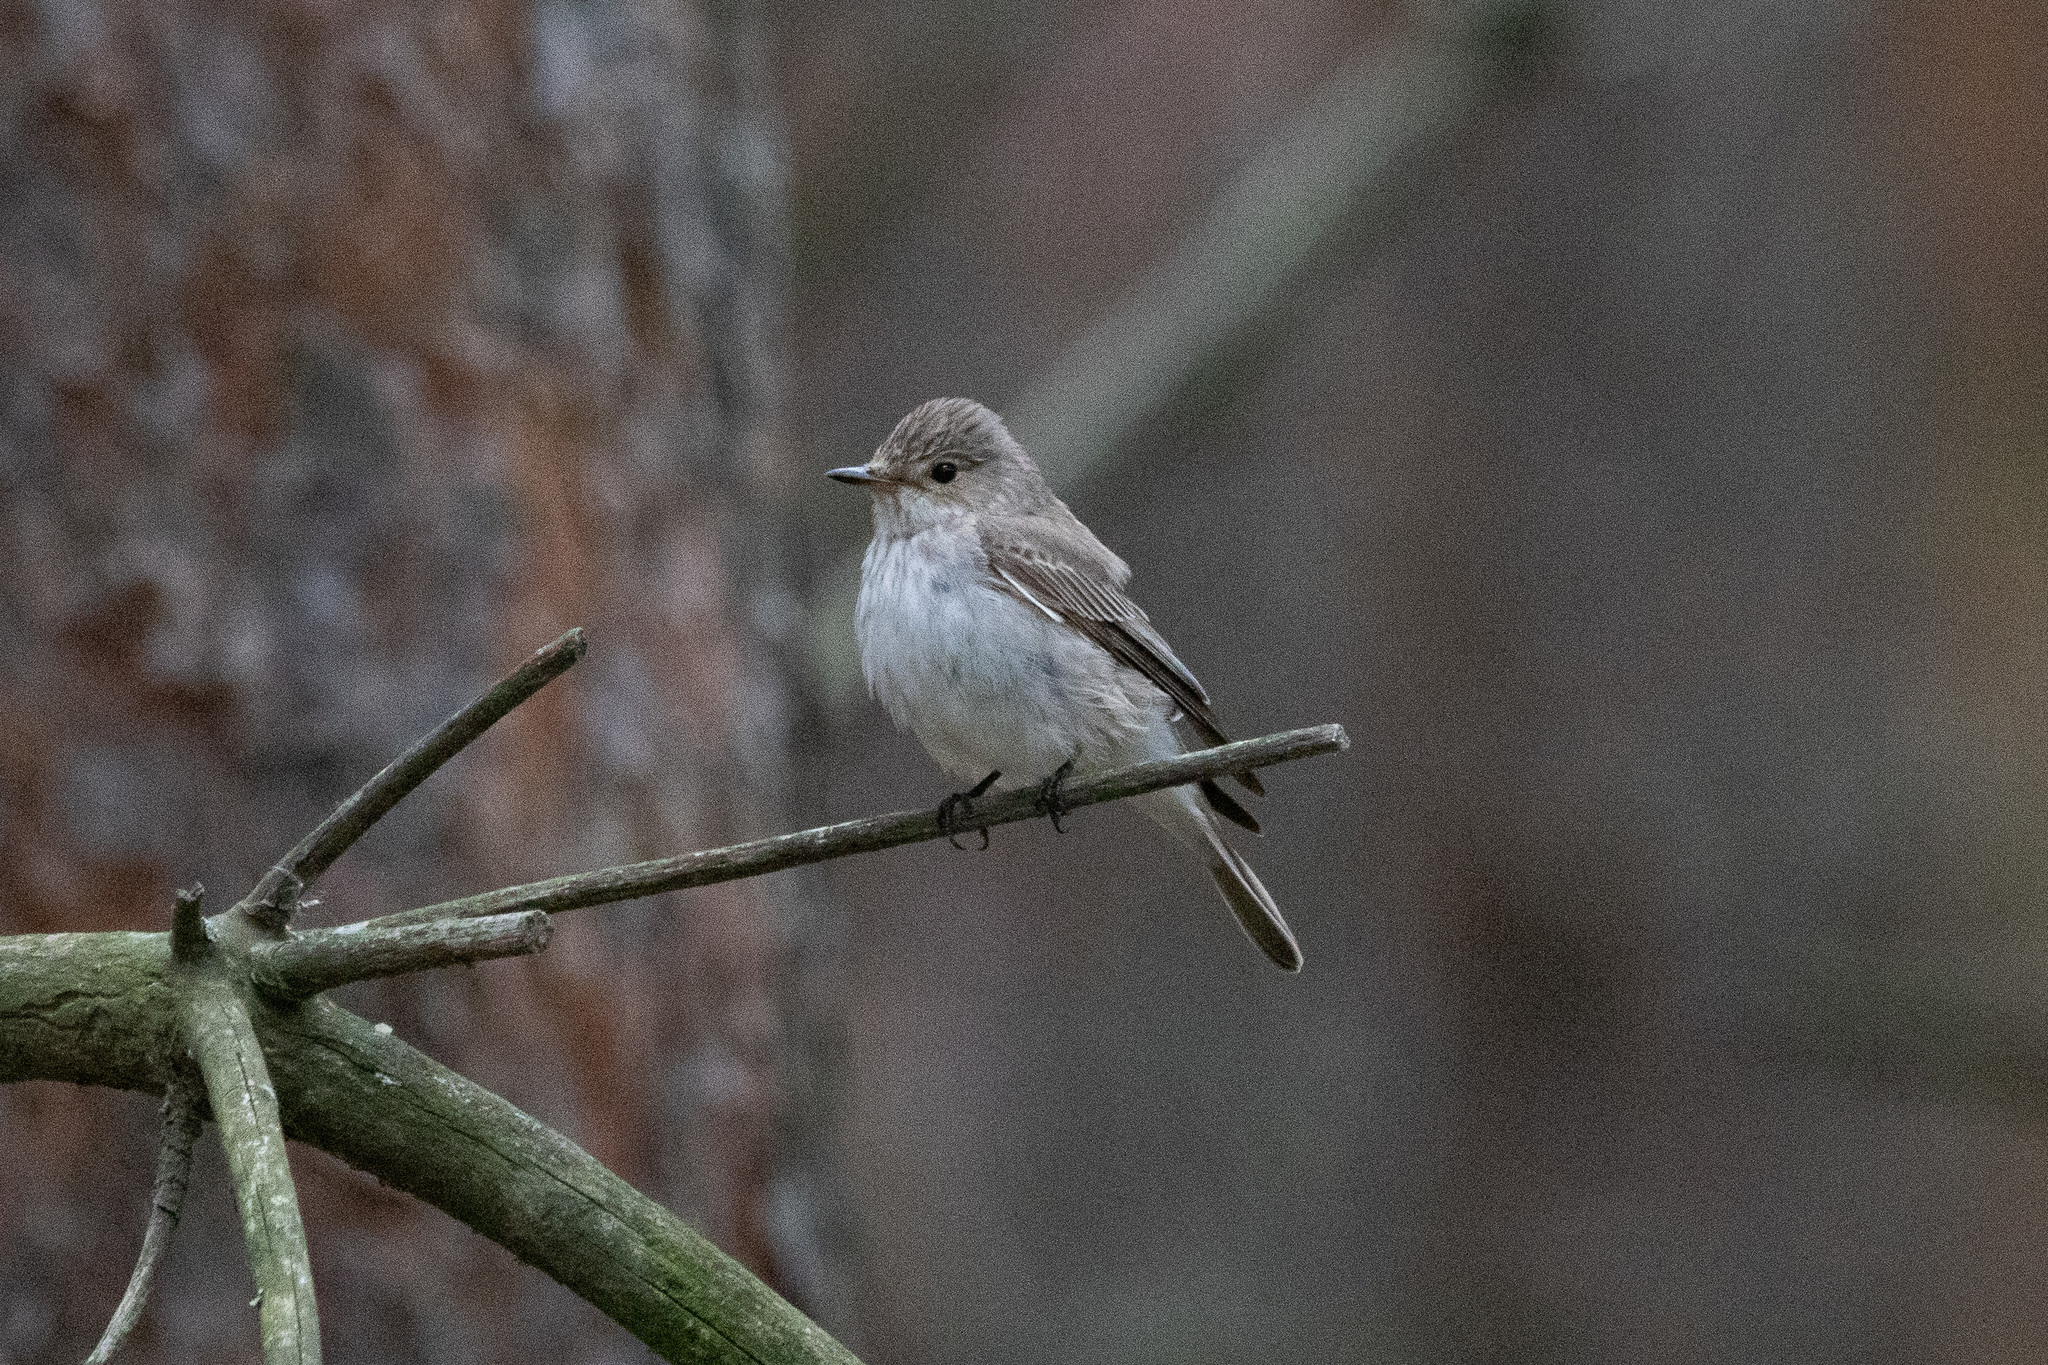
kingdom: Animalia
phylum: Chordata
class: Aves
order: Passeriformes
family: Muscicapidae
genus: Muscicapa
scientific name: Muscicapa striata
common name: Spotted flycatcher
